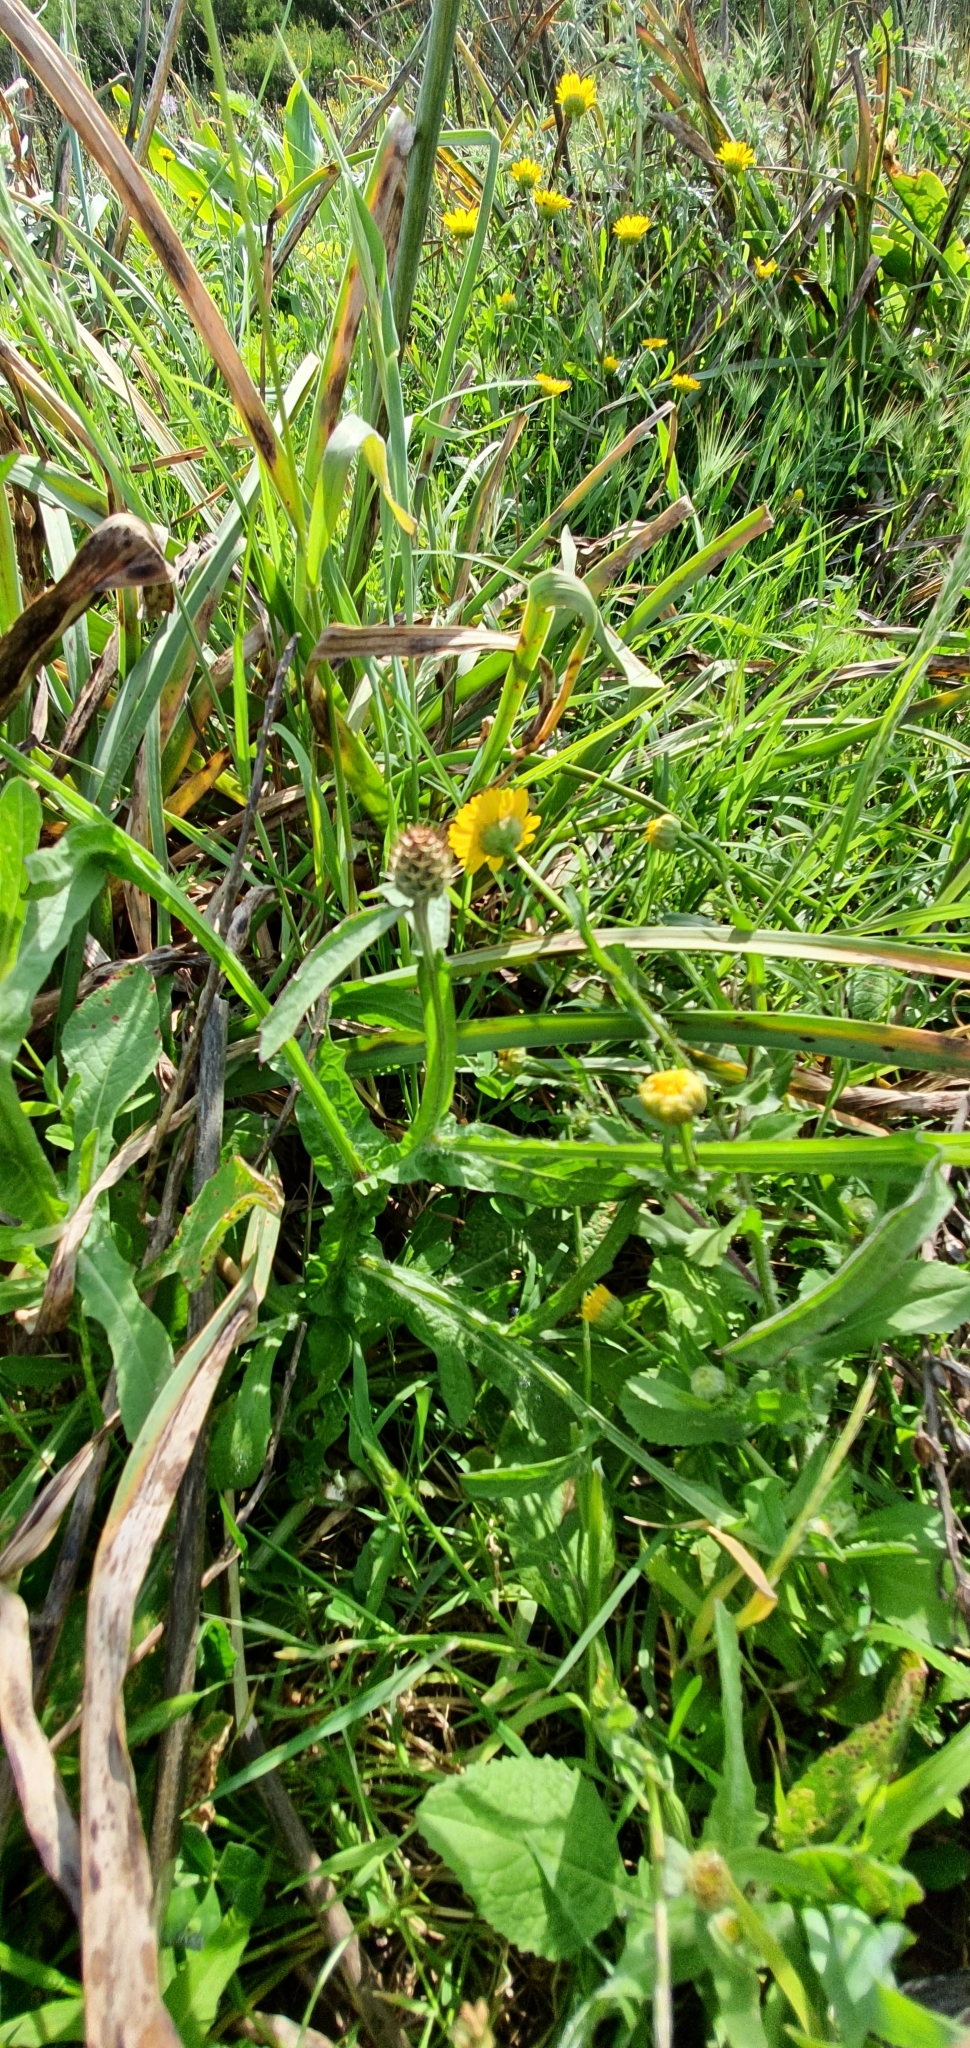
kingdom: Plantae
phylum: Tracheophyta
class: Magnoliopsida
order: Asterales
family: Asteraceae
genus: Centaurea
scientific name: Centaurea napifolia
